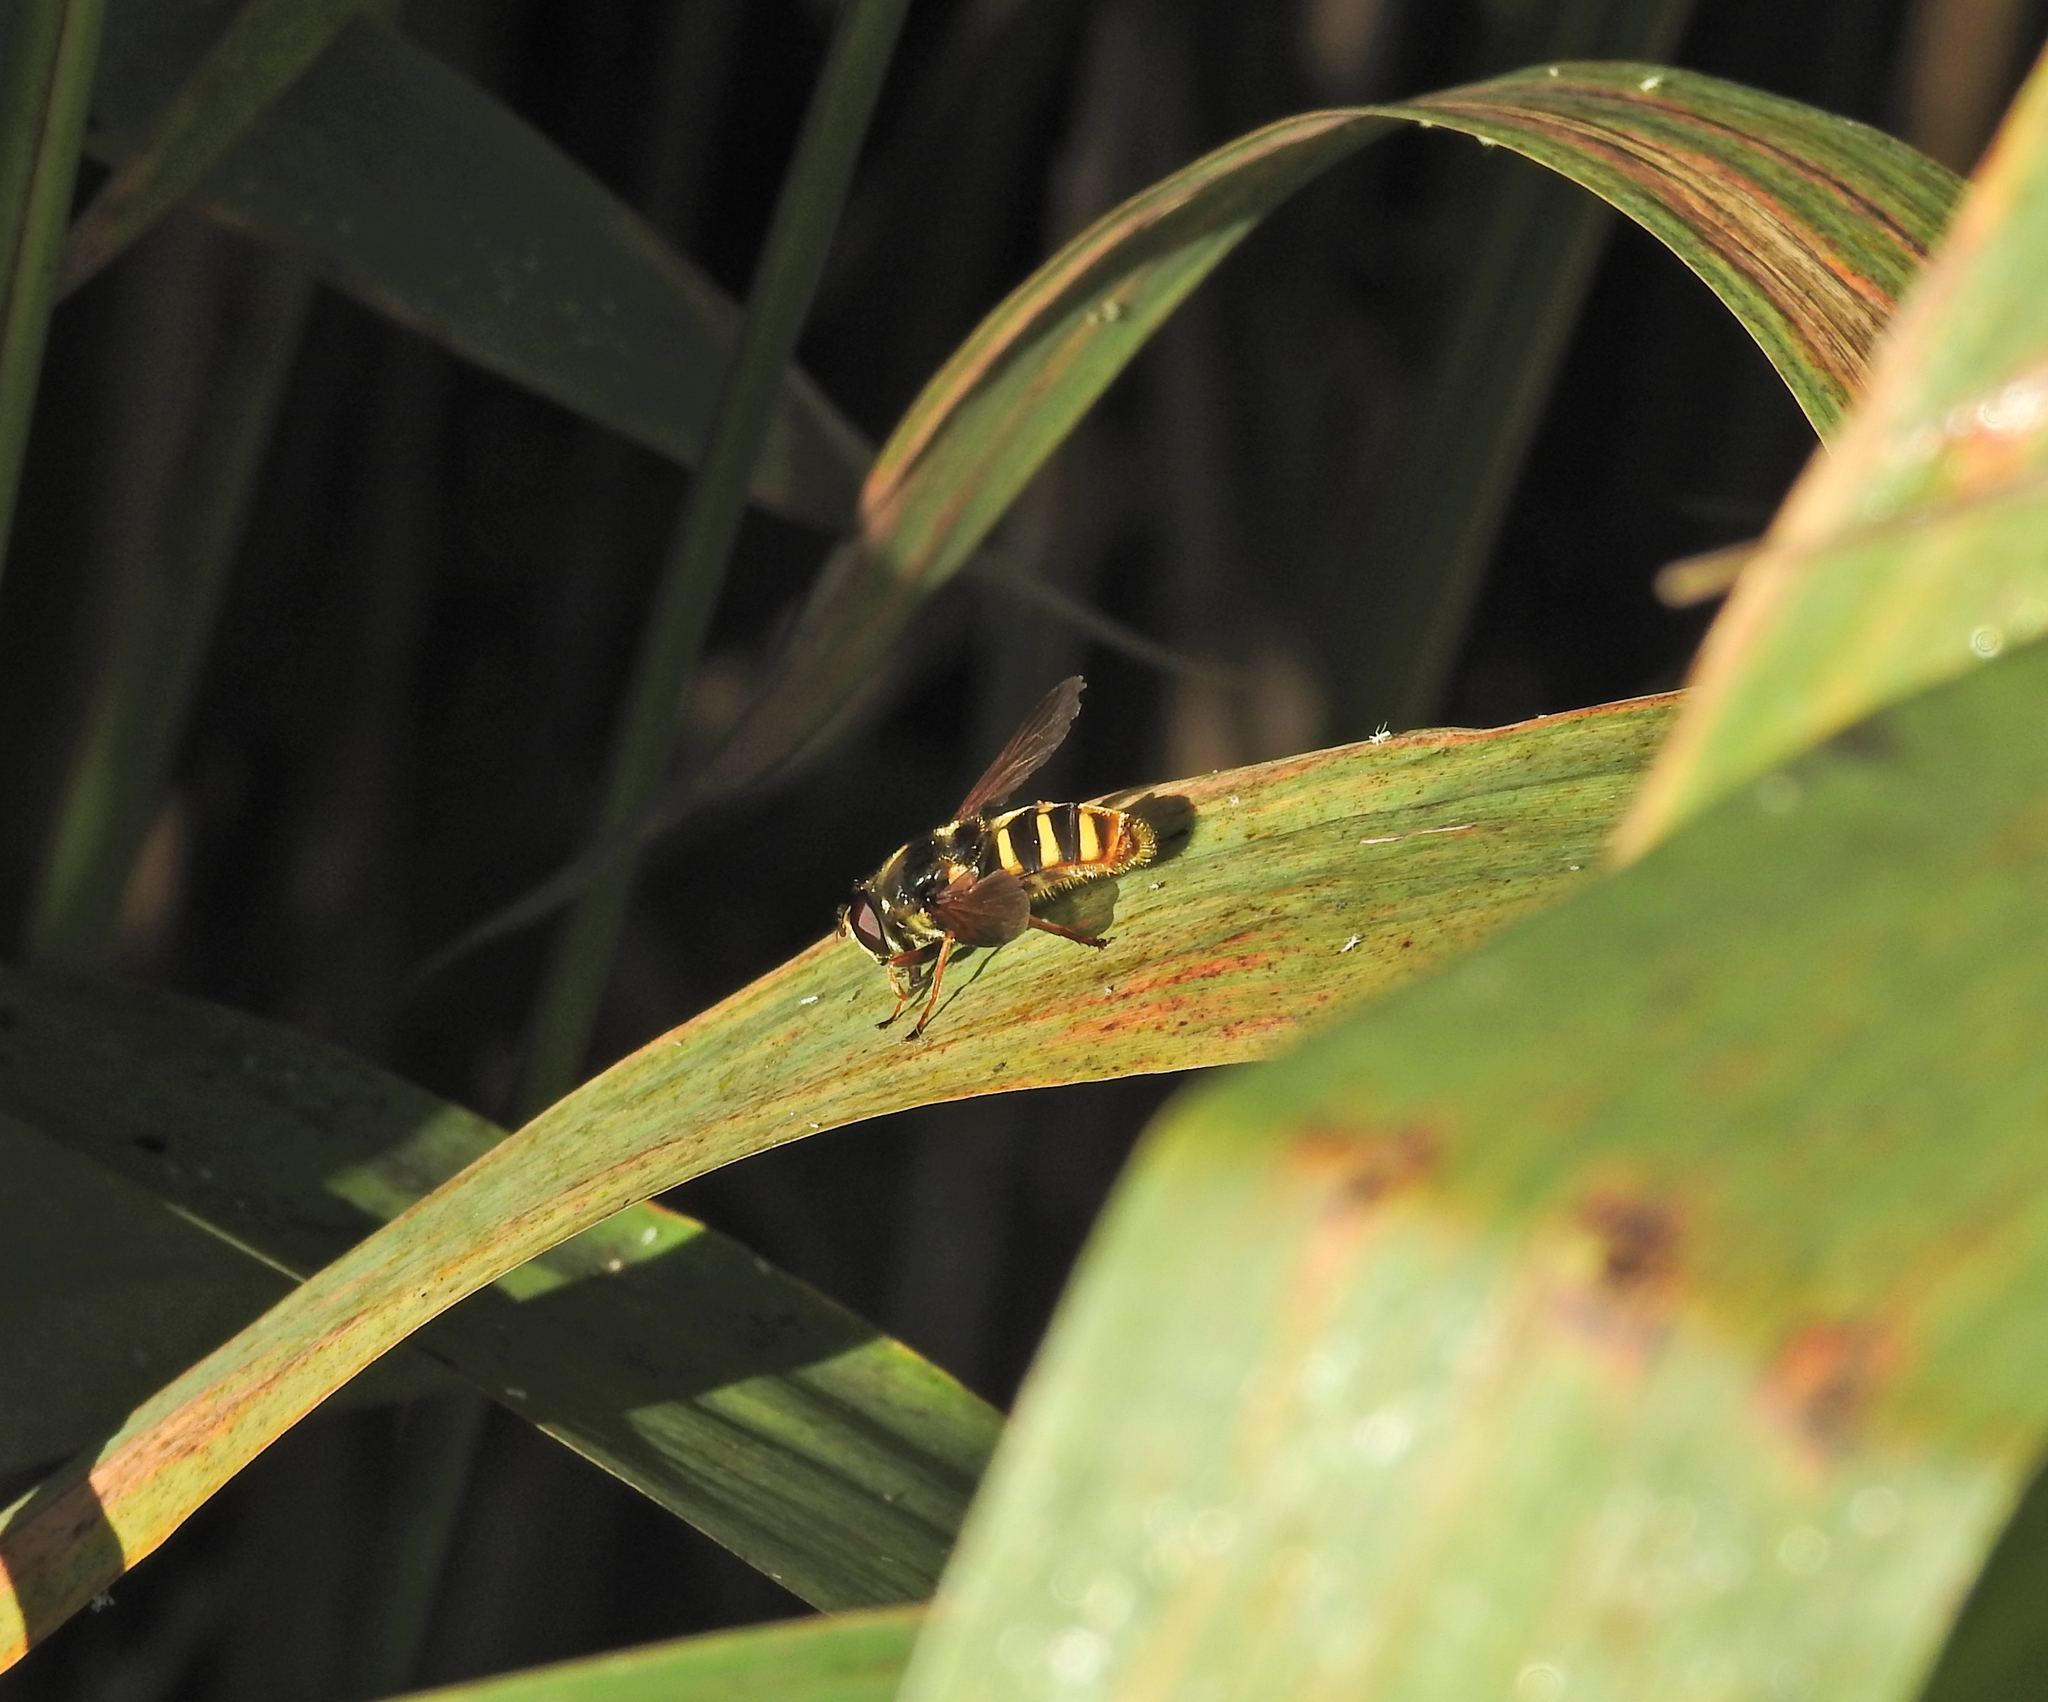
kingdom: Animalia
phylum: Arthropoda
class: Insecta
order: Diptera
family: Syrphidae
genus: Sericomyia
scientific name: Sericomyia silentis
